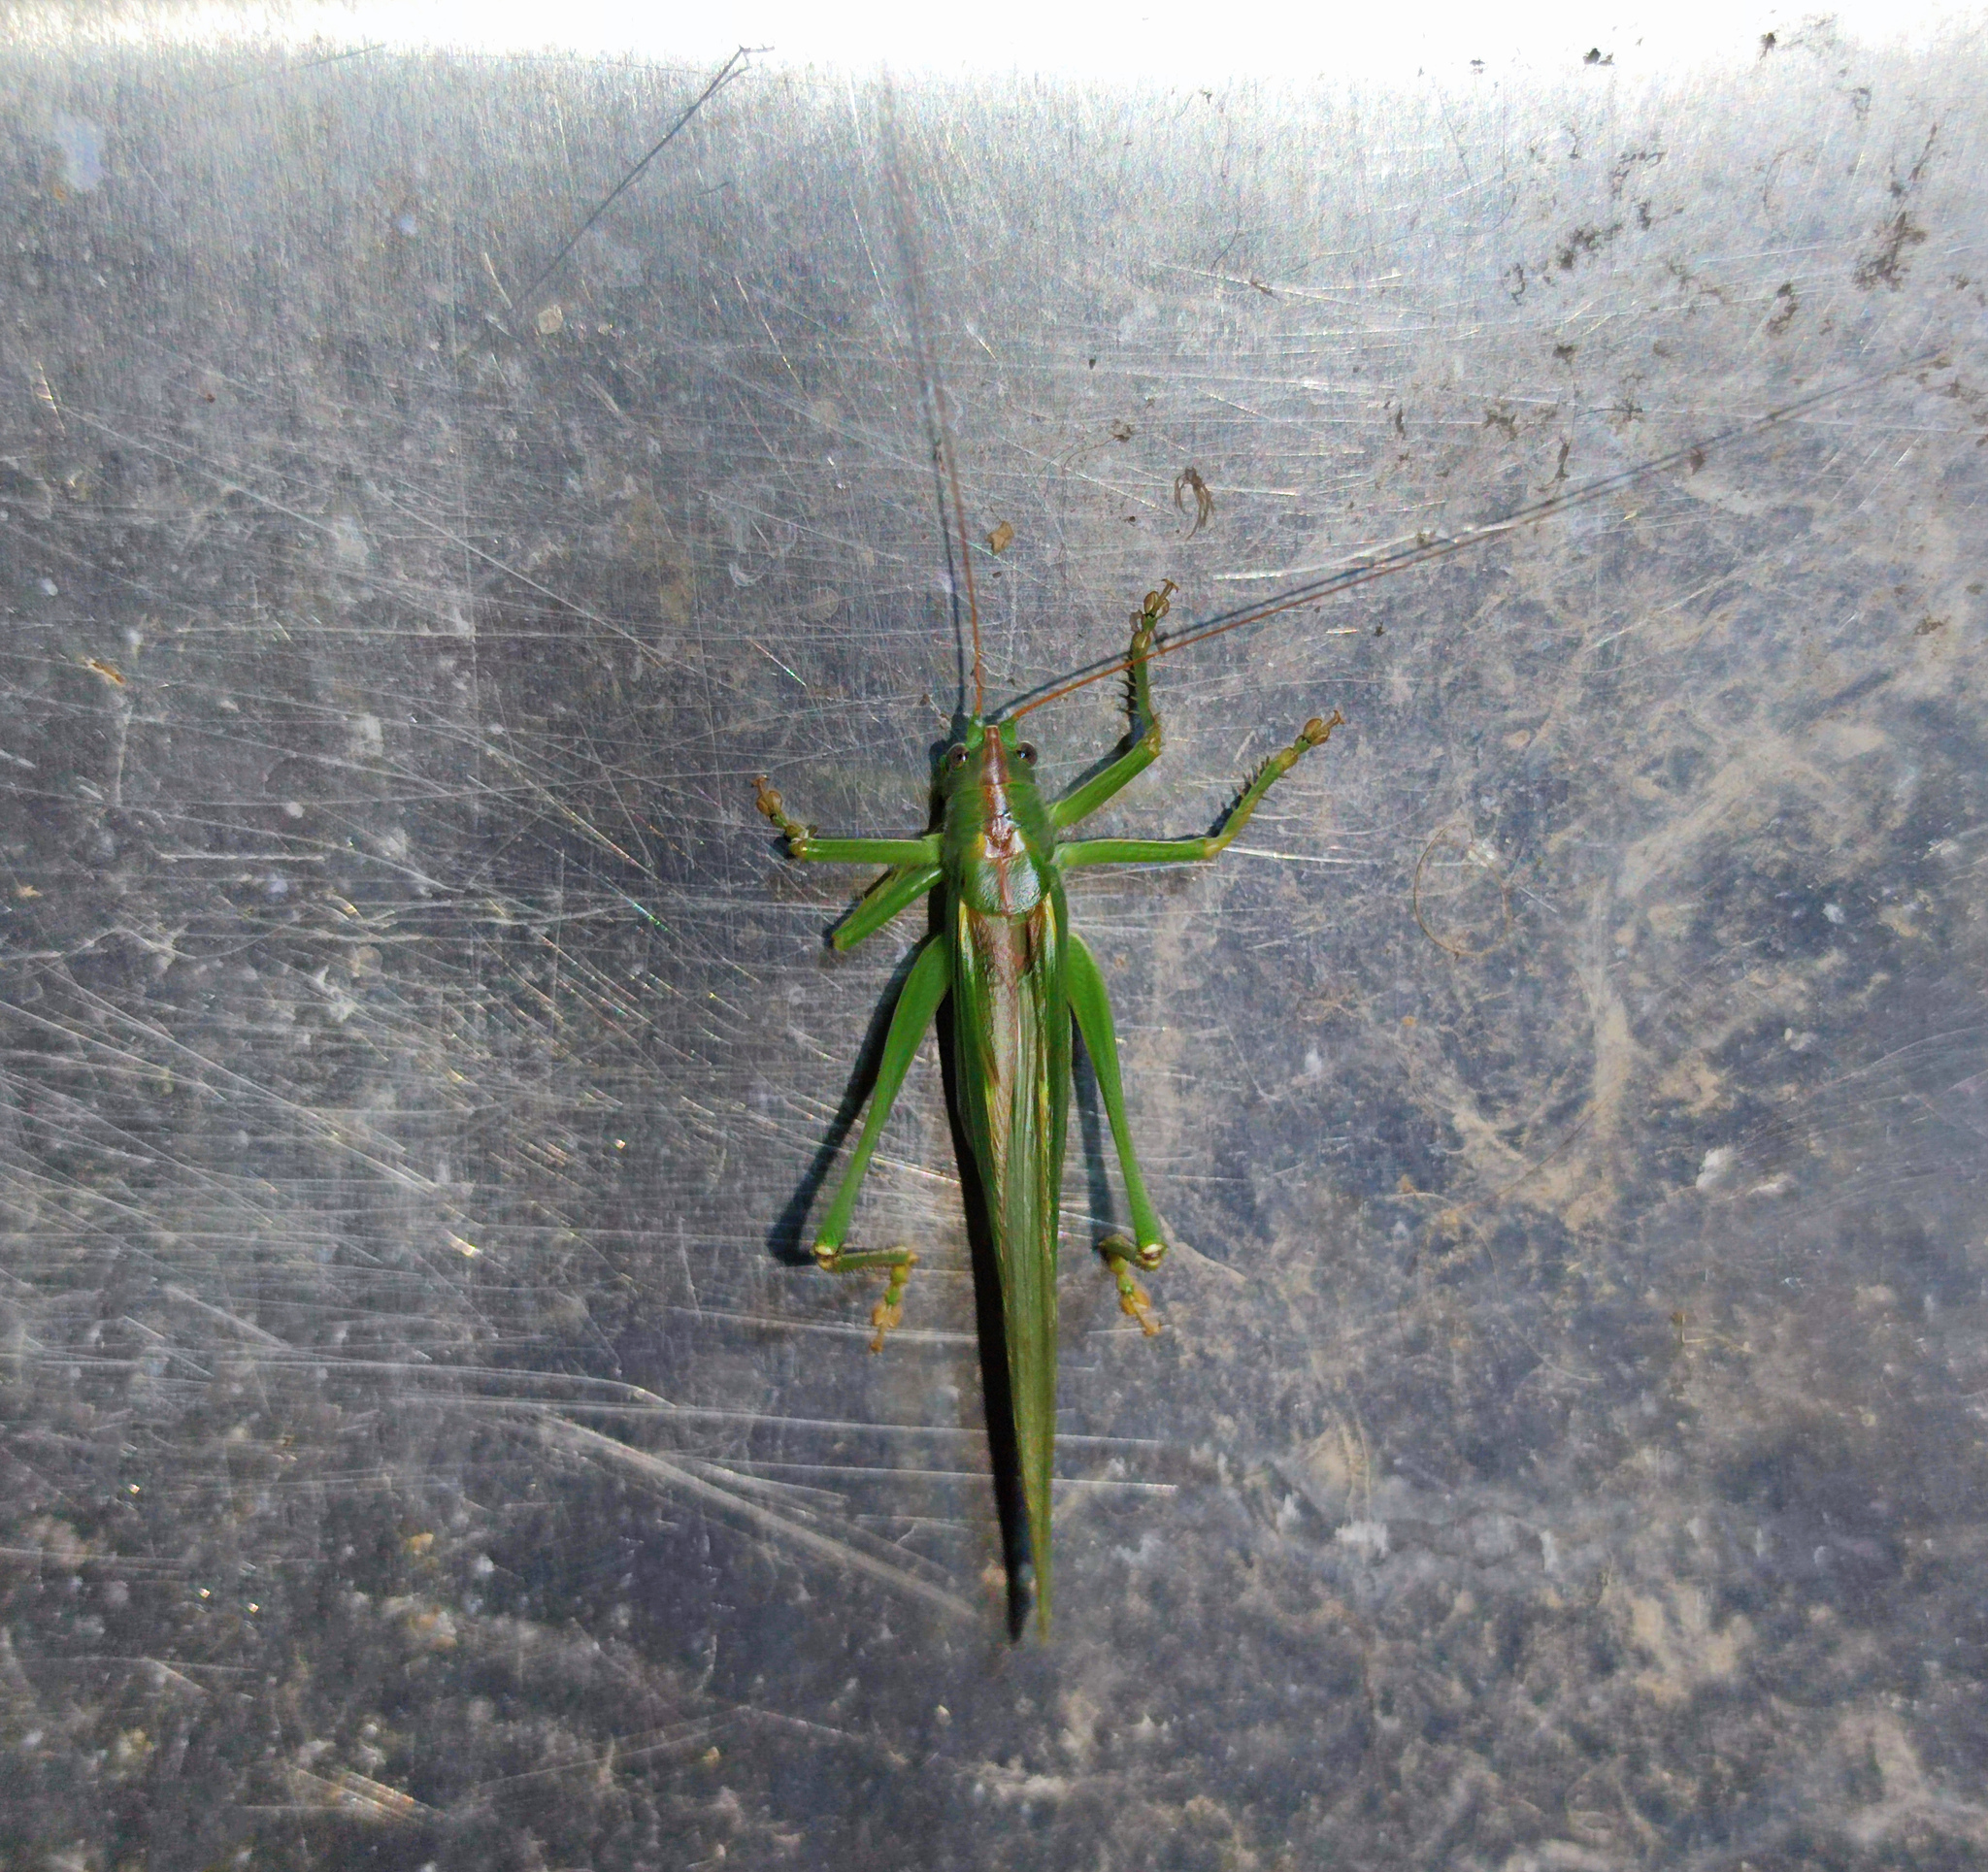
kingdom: Animalia
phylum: Arthropoda
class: Insecta
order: Orthoptera
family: Tettigoniidae
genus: Tettigonia
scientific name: Tettigonia viridissima
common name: Great green bush-cricket
